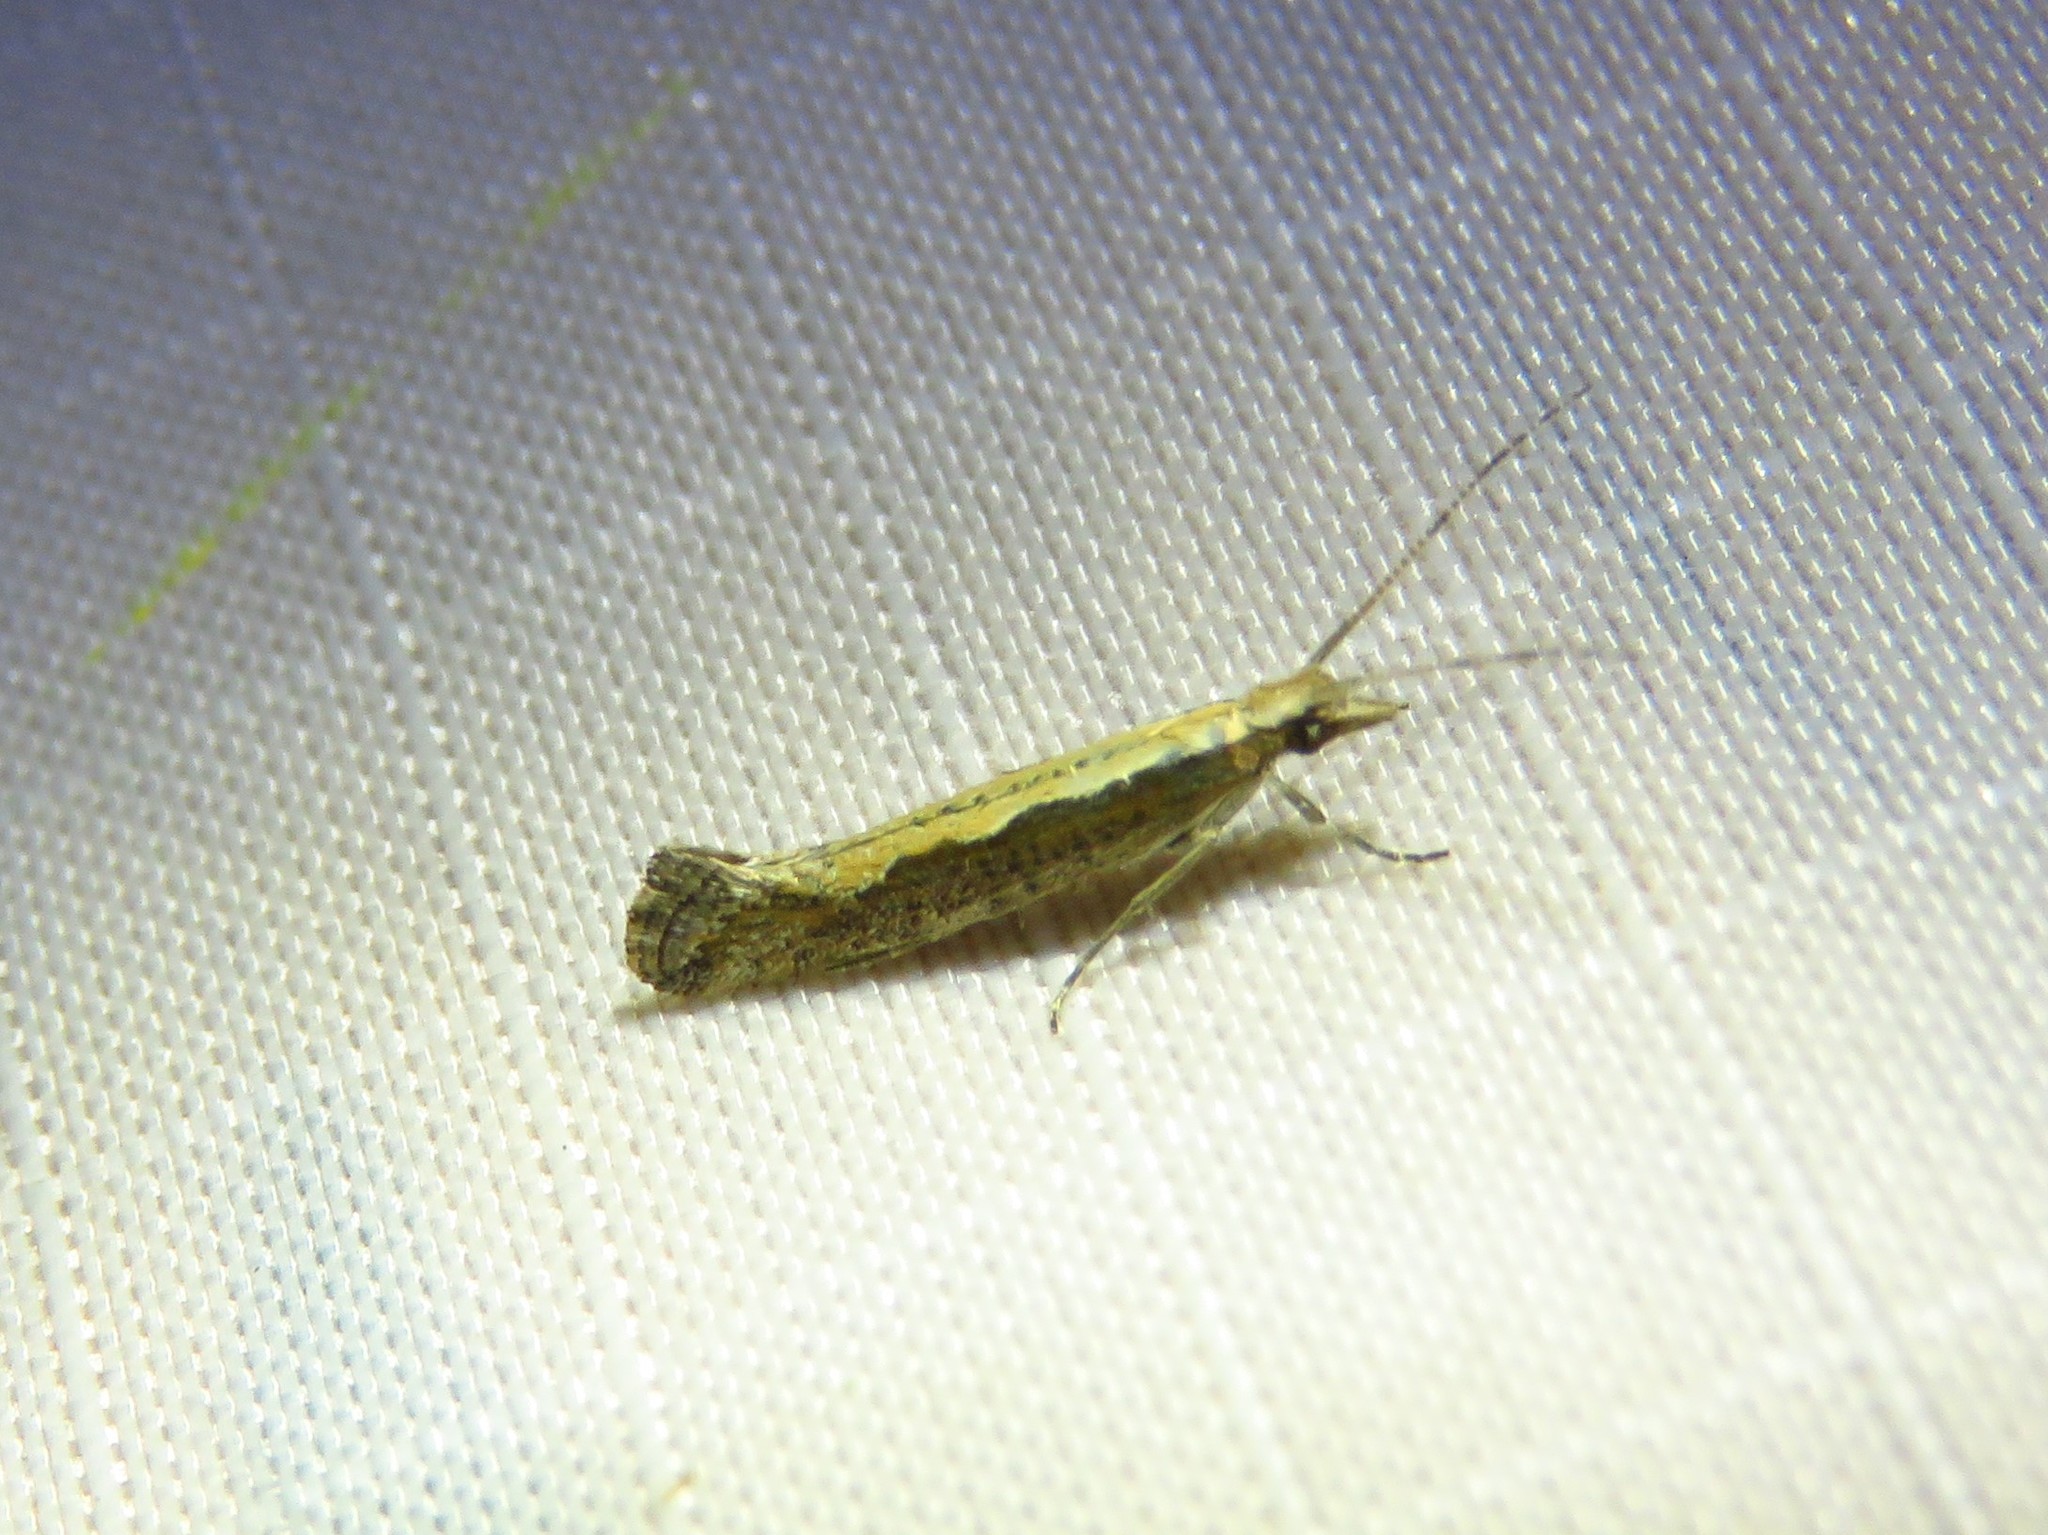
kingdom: Animalia
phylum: Arthropoda
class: Insecta
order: Lepidoptera
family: Plutellidae
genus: Plutella
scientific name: Plutella xylostella
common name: Diamond-back moth
